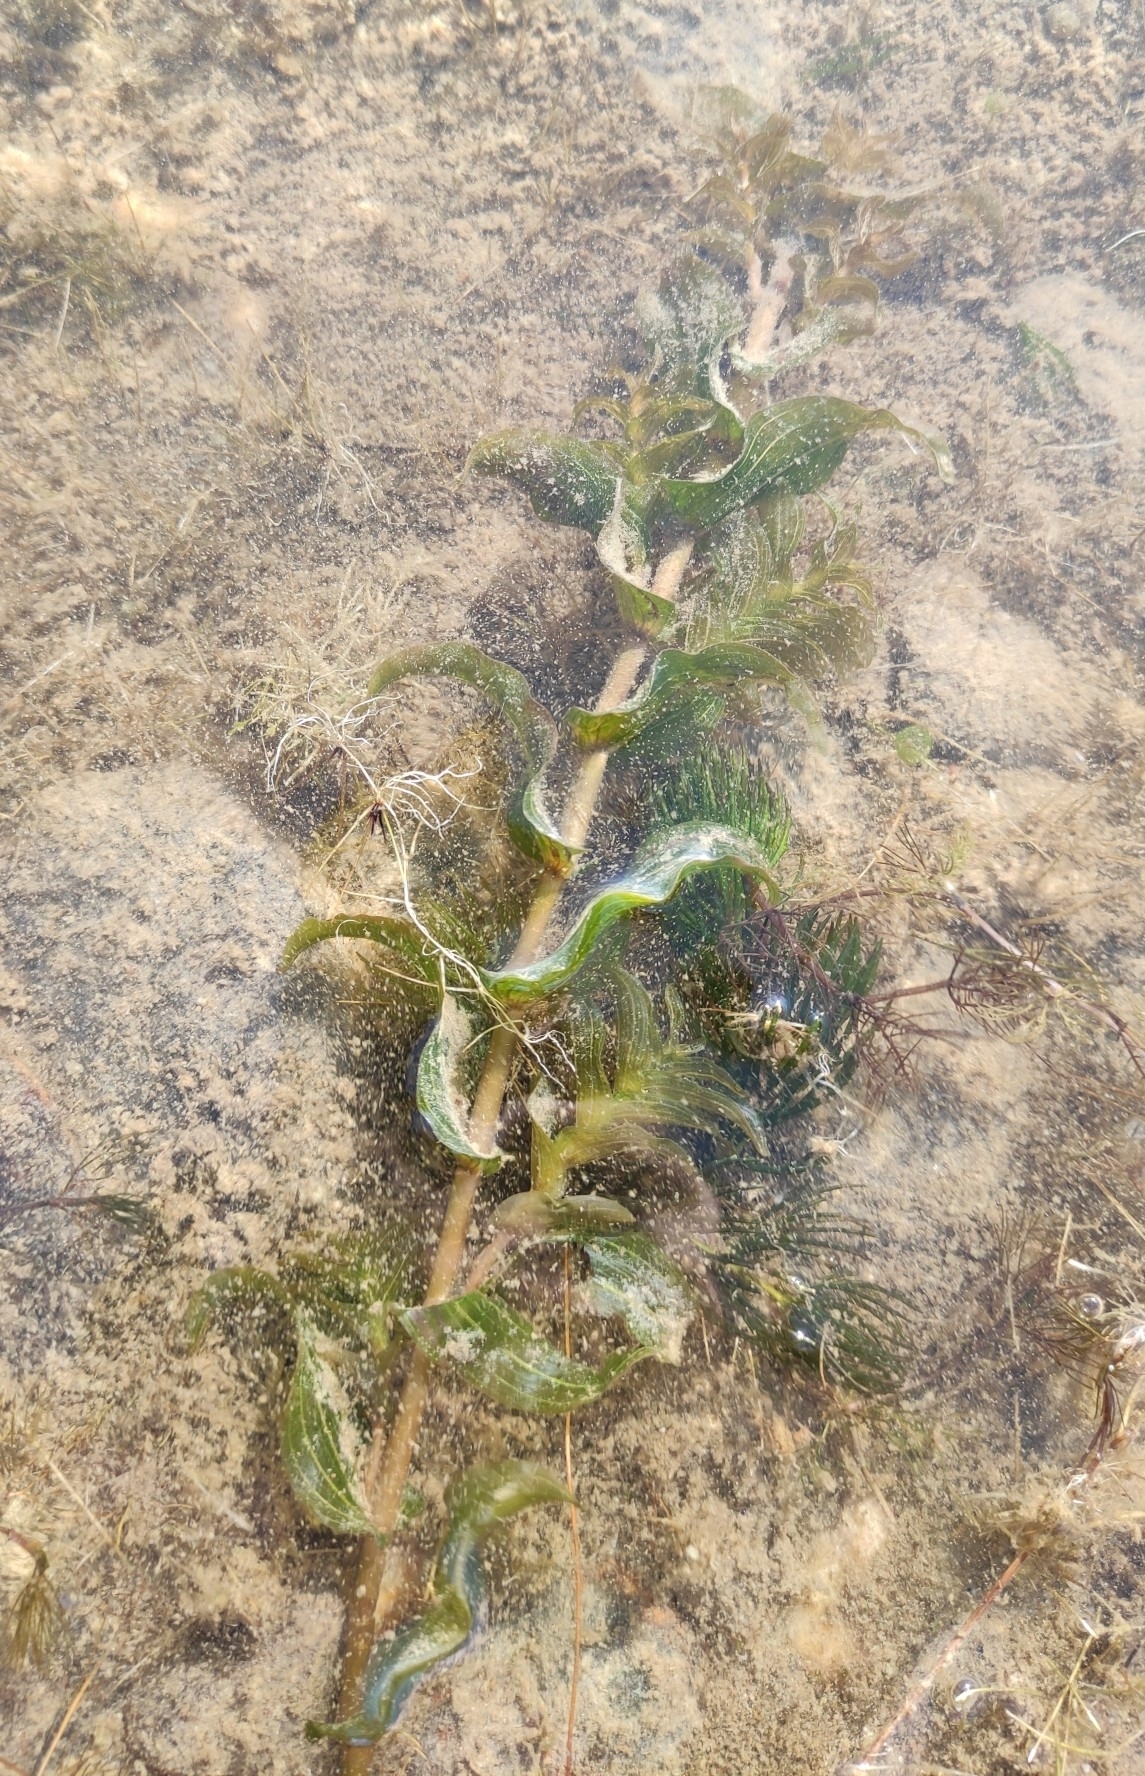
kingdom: Plantae
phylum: Tracheophyta
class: Liliopsida
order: Alismatales
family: Potamogetonaceae
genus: Potamogeton
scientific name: Potamogeton perfoliatus
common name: Perfoliate pondweed
